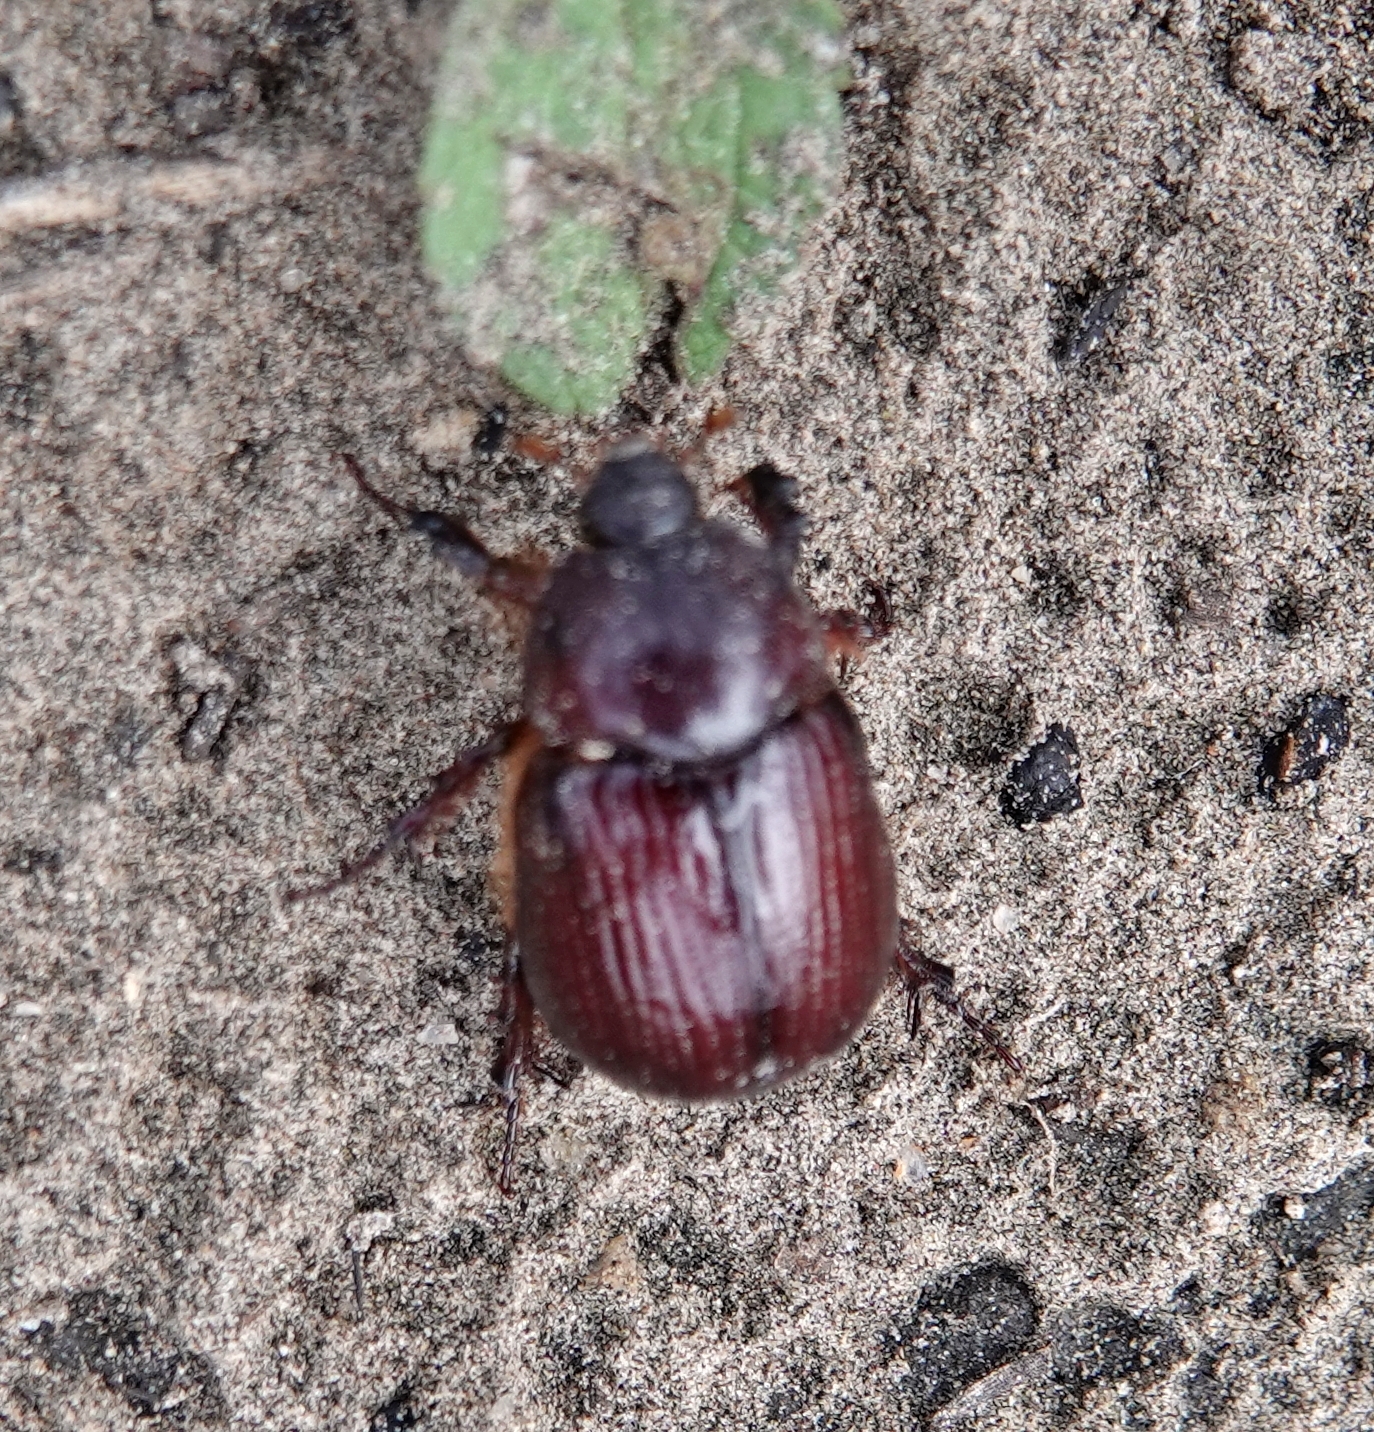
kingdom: Animalia
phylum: Arthropoda
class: Insecta
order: Coleoptera
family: Scarabaeidae
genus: Orizabus
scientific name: Orizabus pyriformis
